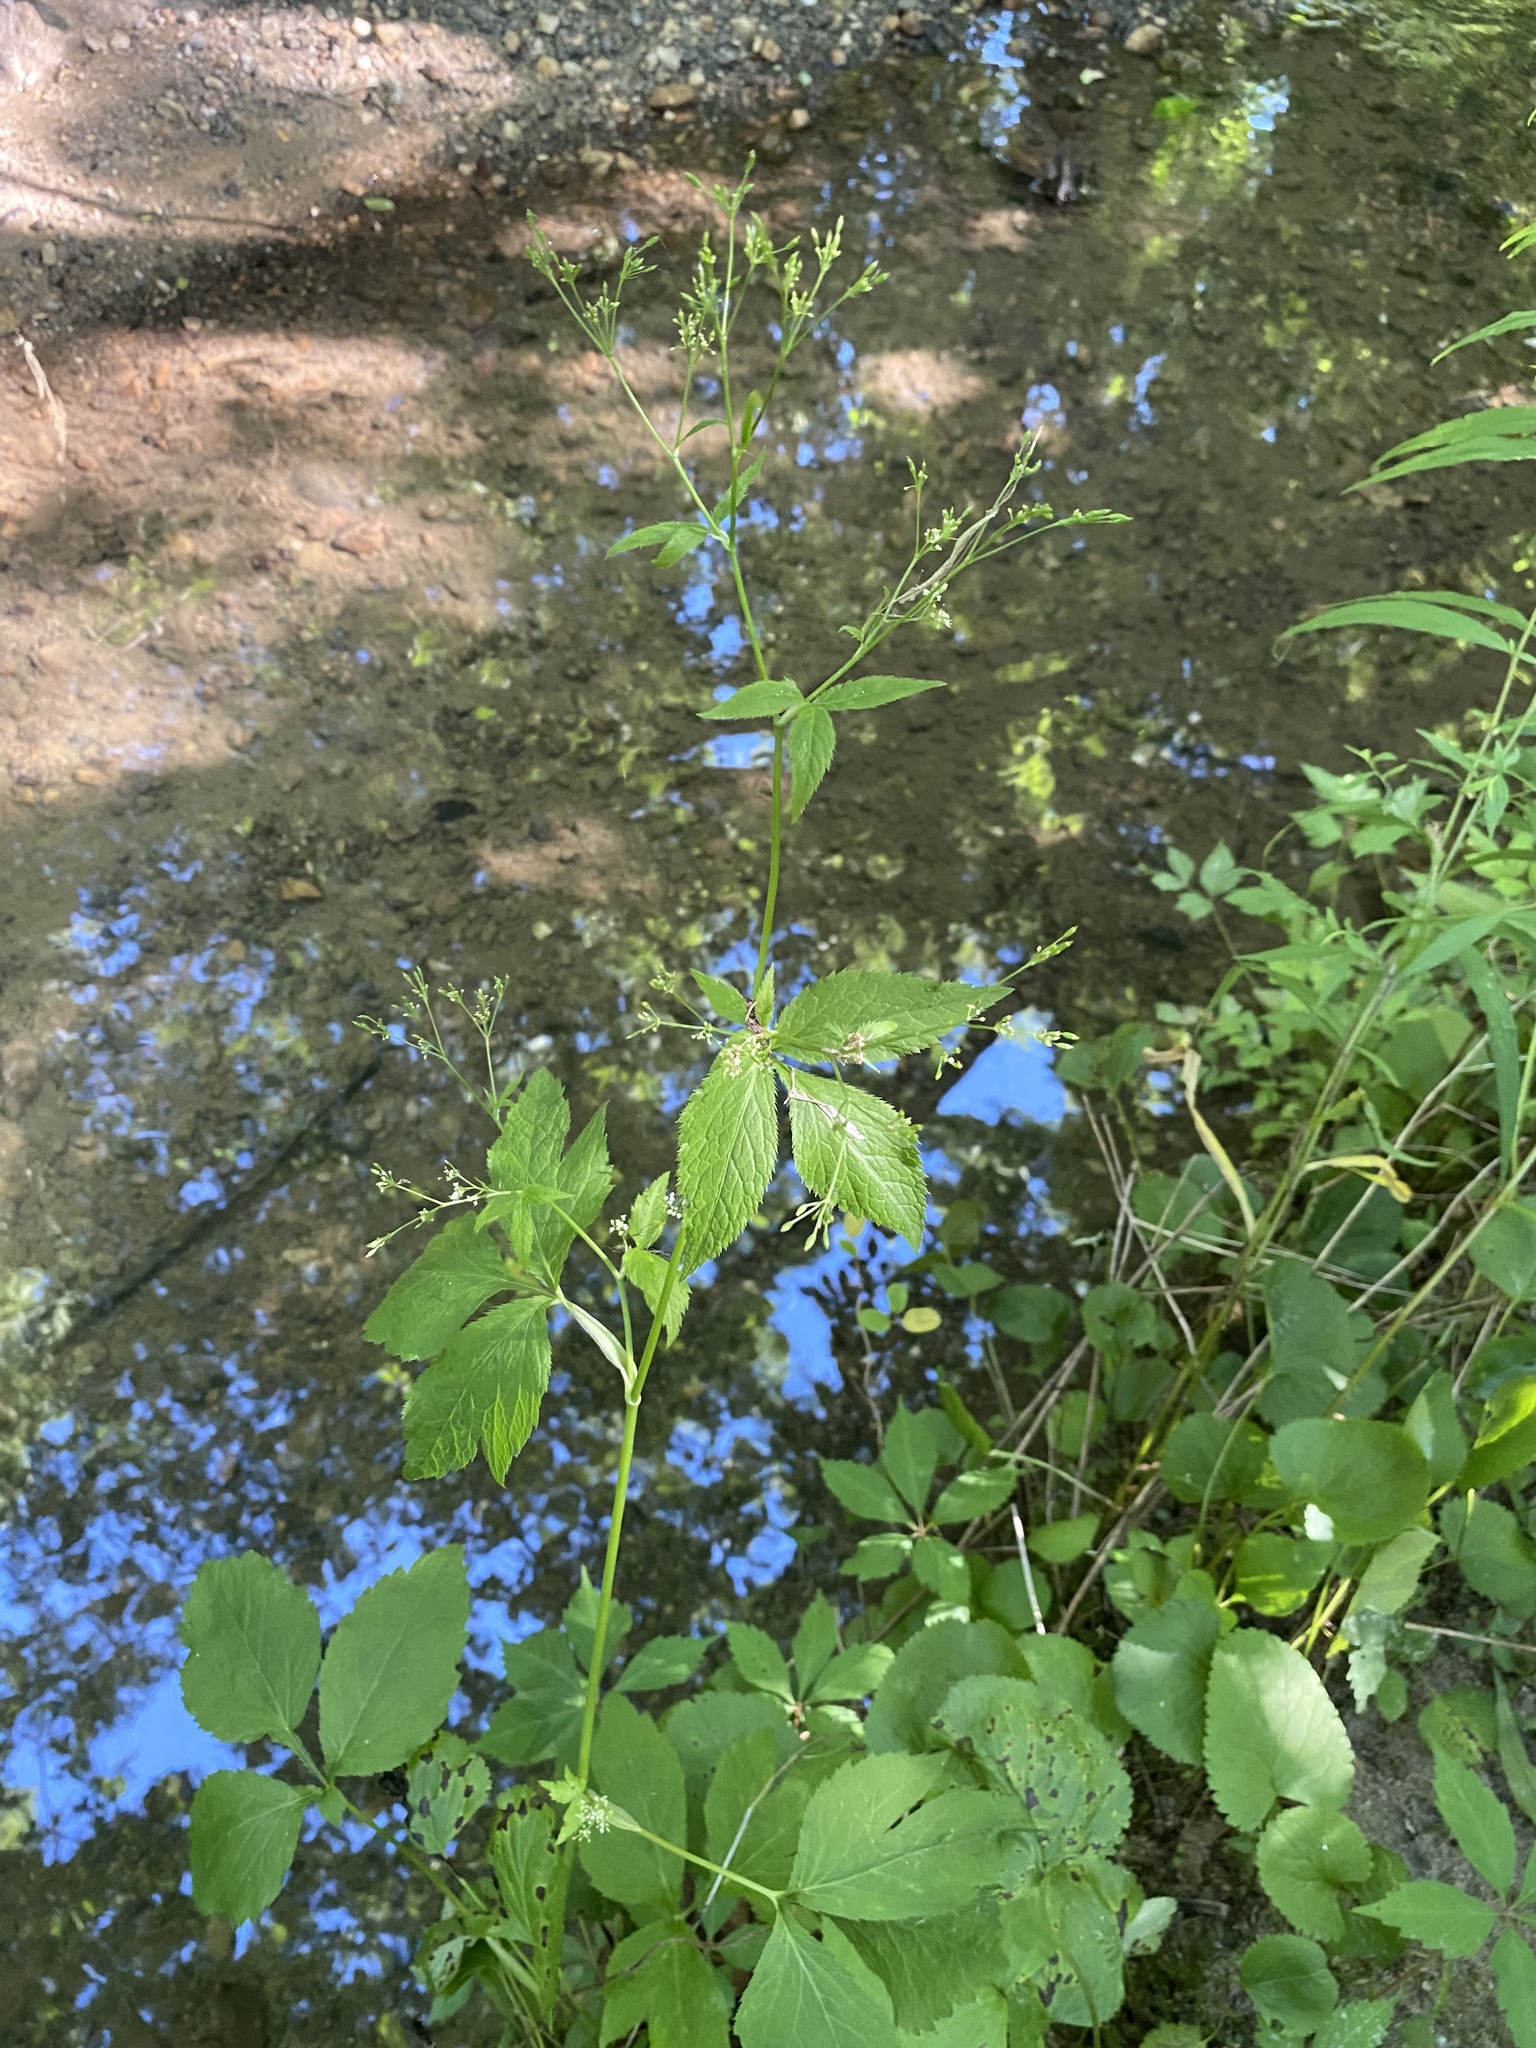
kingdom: Plantae
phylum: Tracheophyta
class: Magnoliopsida
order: Apiales
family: Apiaceae
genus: Cryptotaenia
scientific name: Cryptotaenia canadensis
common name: Honewort
